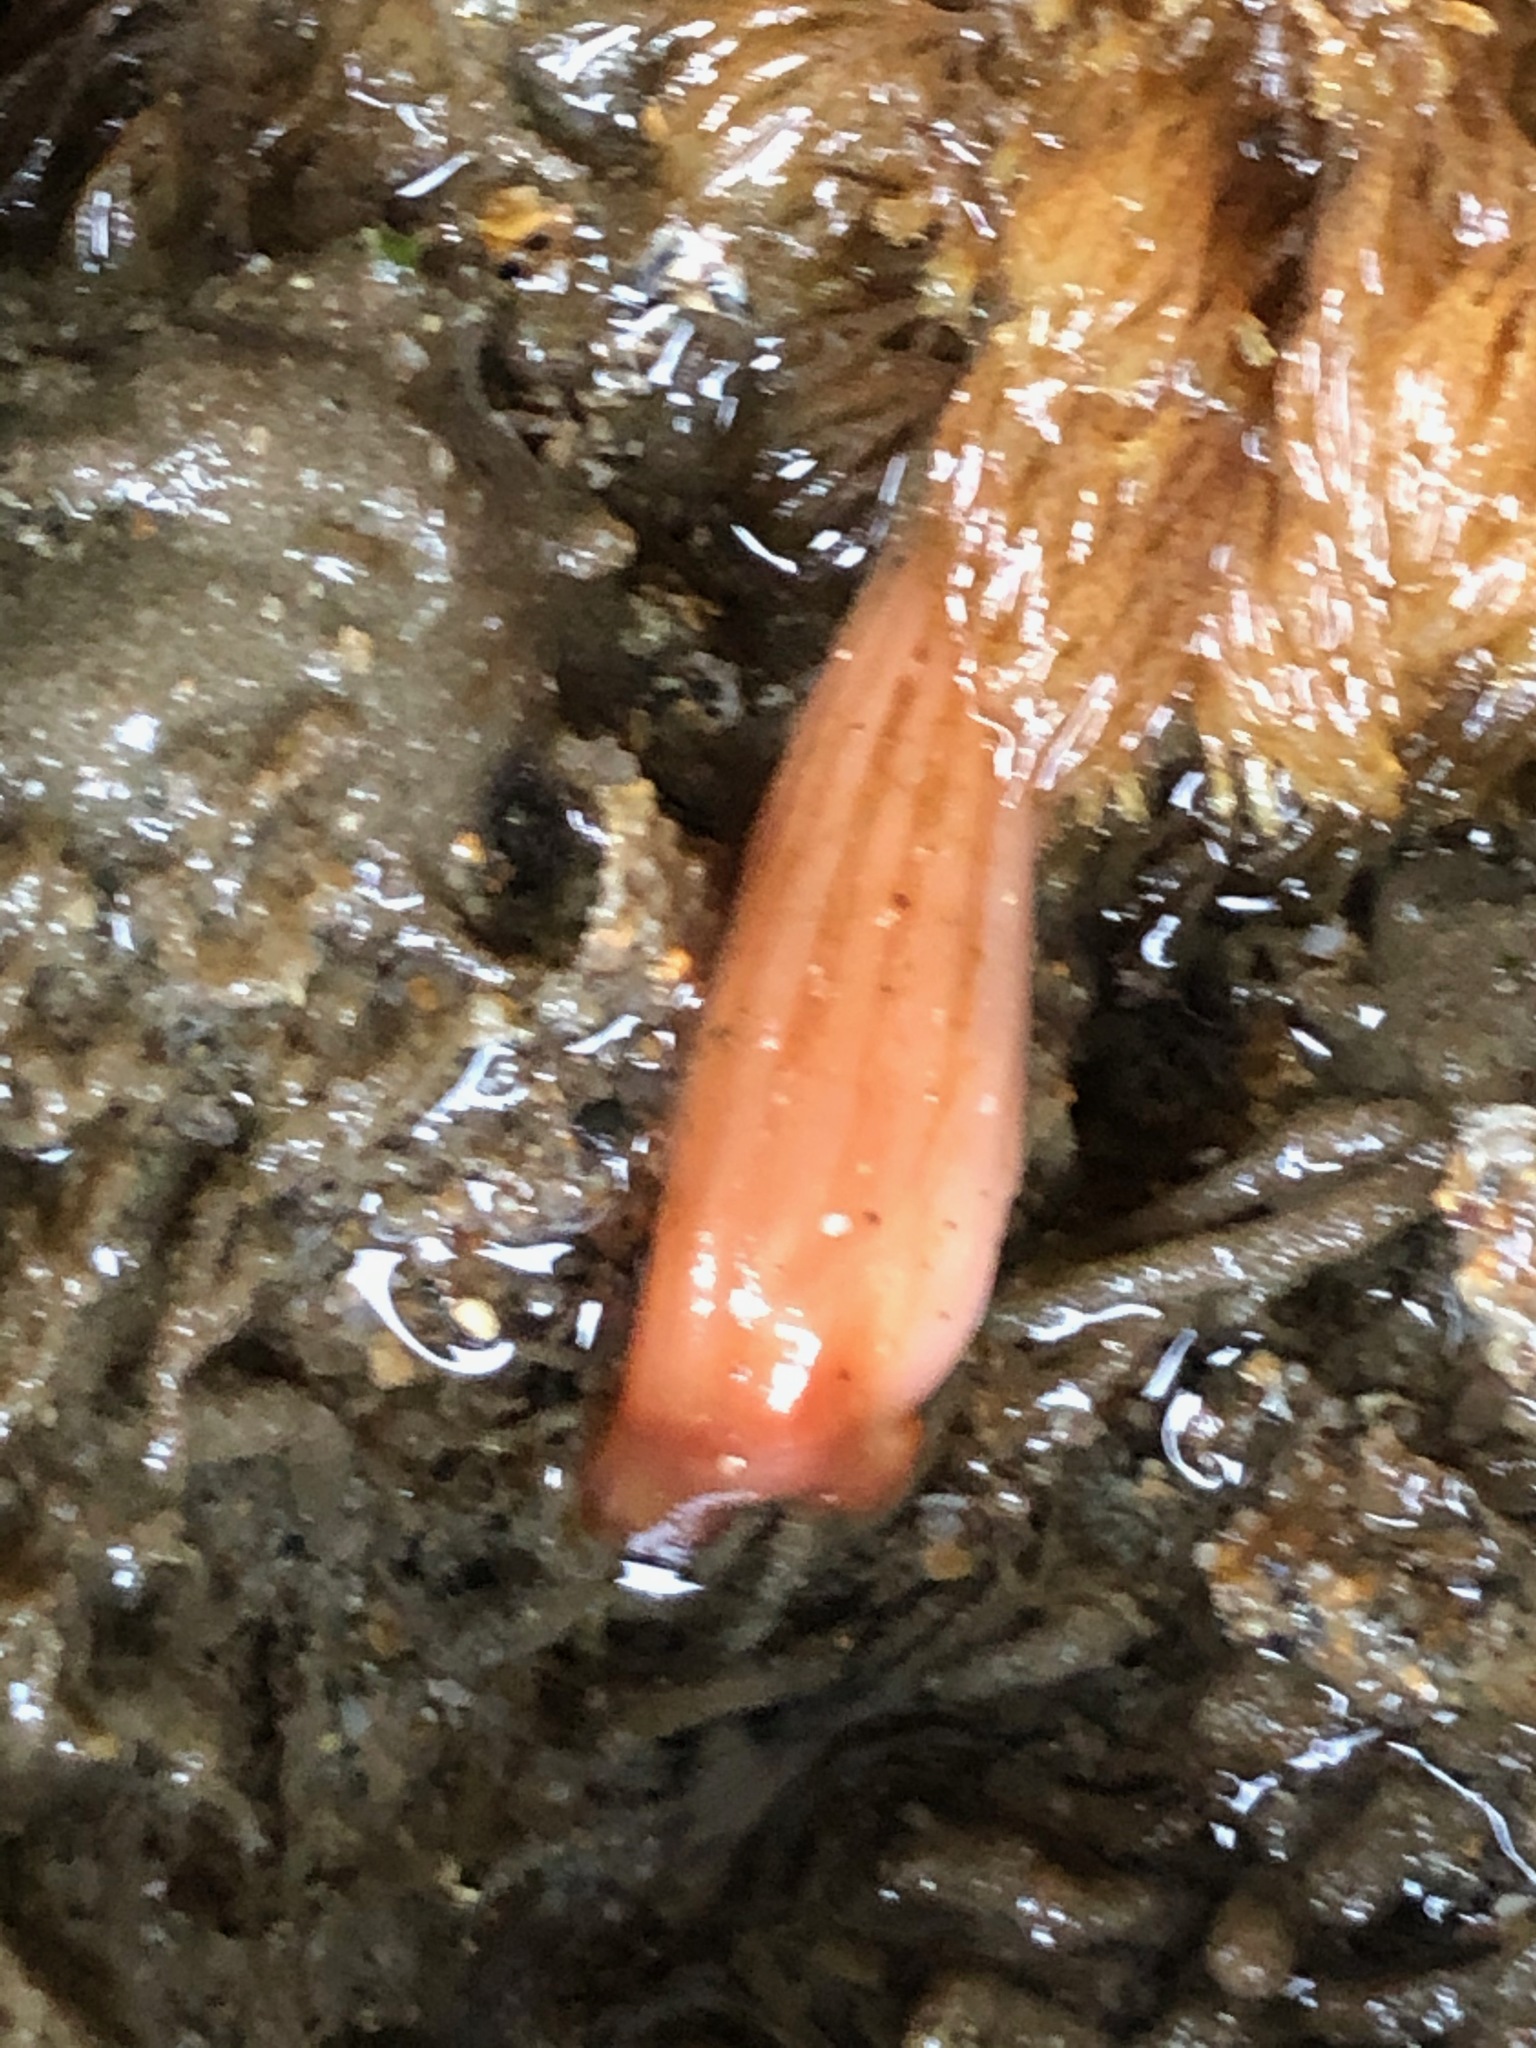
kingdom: Animalia
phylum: Chordata
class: Ascidiacea
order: Stolidobranchia
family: Styelidae
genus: Styela
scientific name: Styela montereyensis
